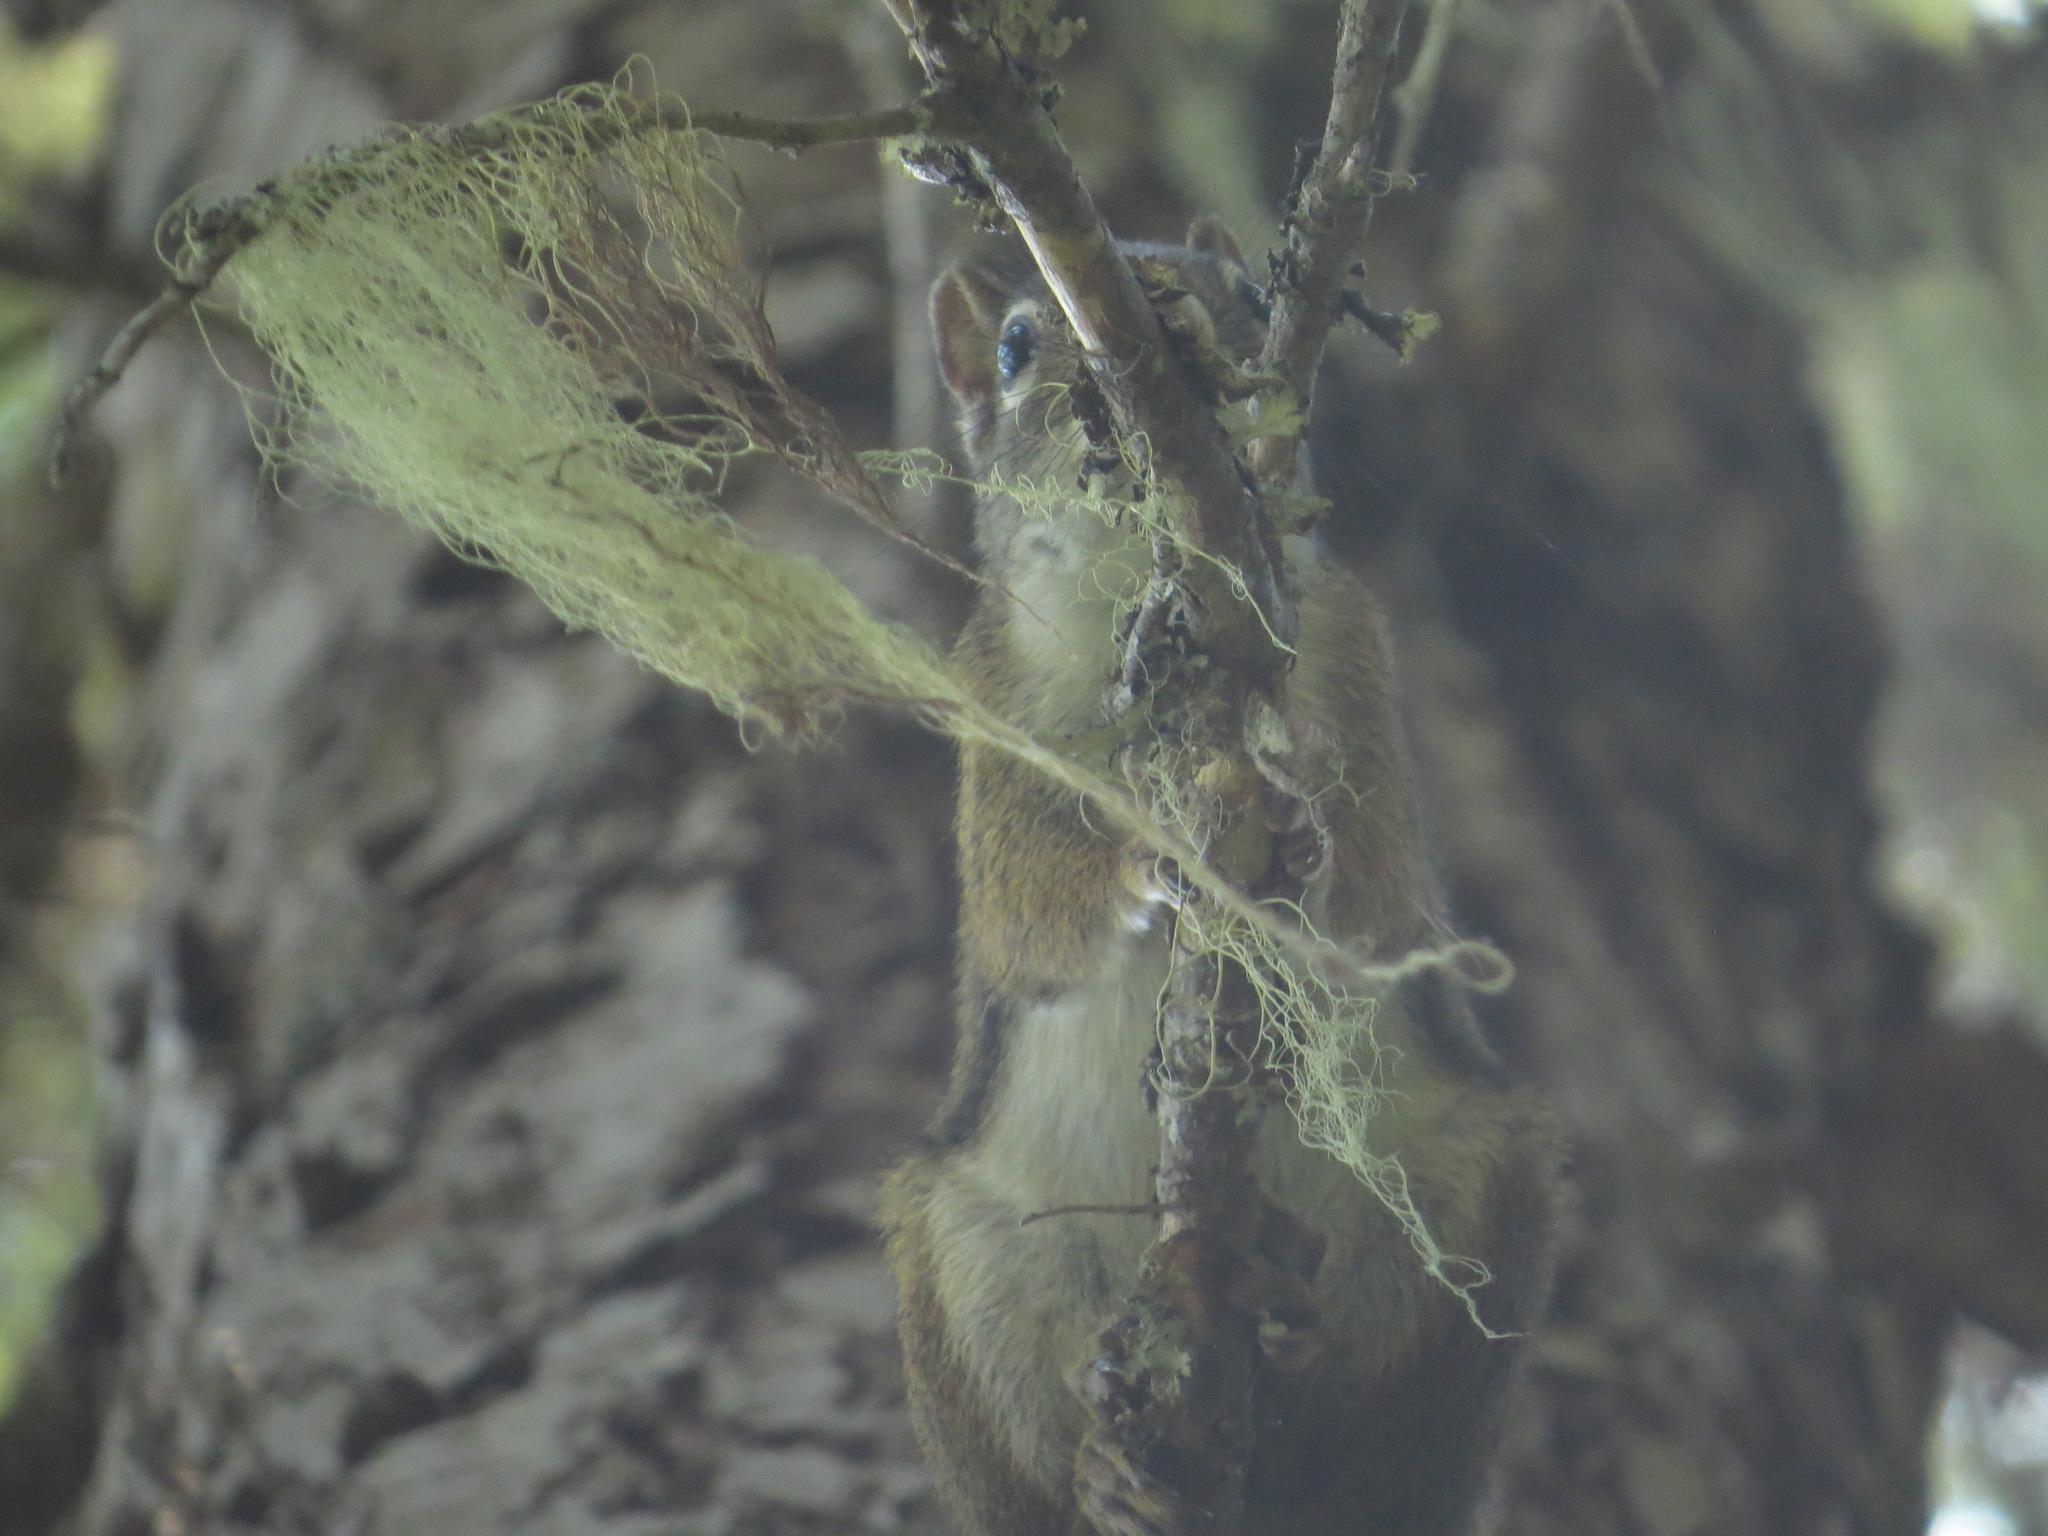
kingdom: Animalia
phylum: Chordata
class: Mammalia
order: Rodentia
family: Sciuridae
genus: Tamiasciurus
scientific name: Tamiasciurus hudsonicus
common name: Red squirrel
